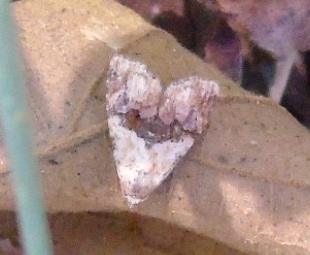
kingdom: Animalia
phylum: Arthropoda
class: Insecta
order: Lepidoptera
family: Noctuidae
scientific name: Noctuidae
